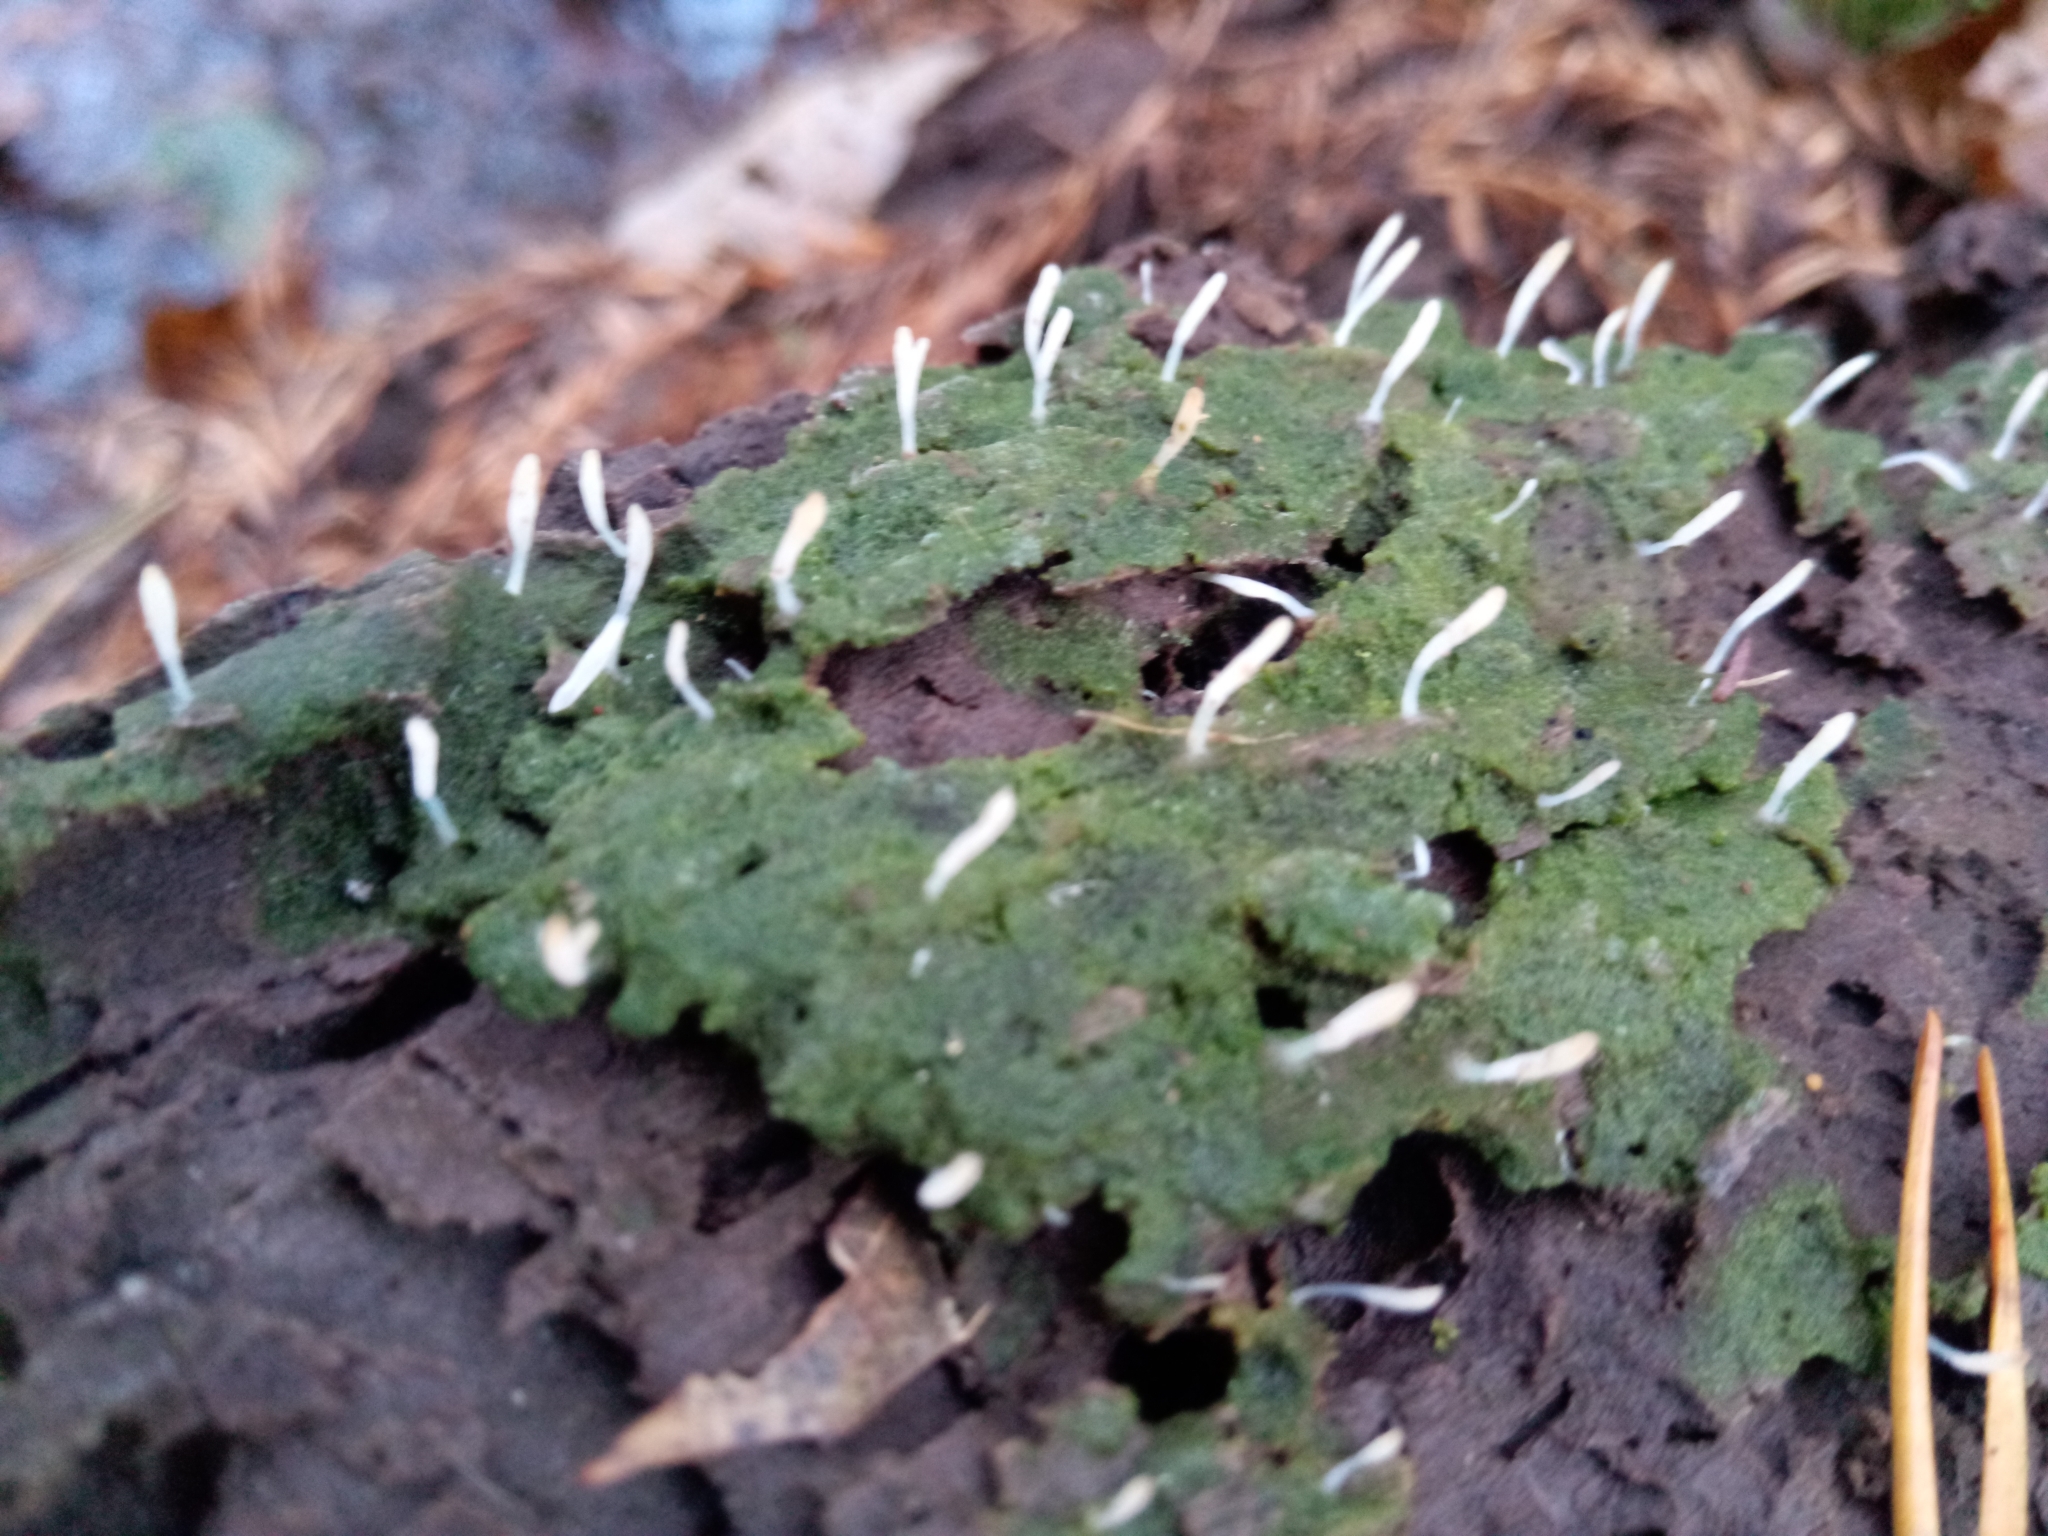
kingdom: Fungi
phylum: Basidiomycota
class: Agaricomycetes
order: Cantharellales
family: Hydnaceae
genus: Multiclavula
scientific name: Multiclavula mucida
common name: White green-algae coral
